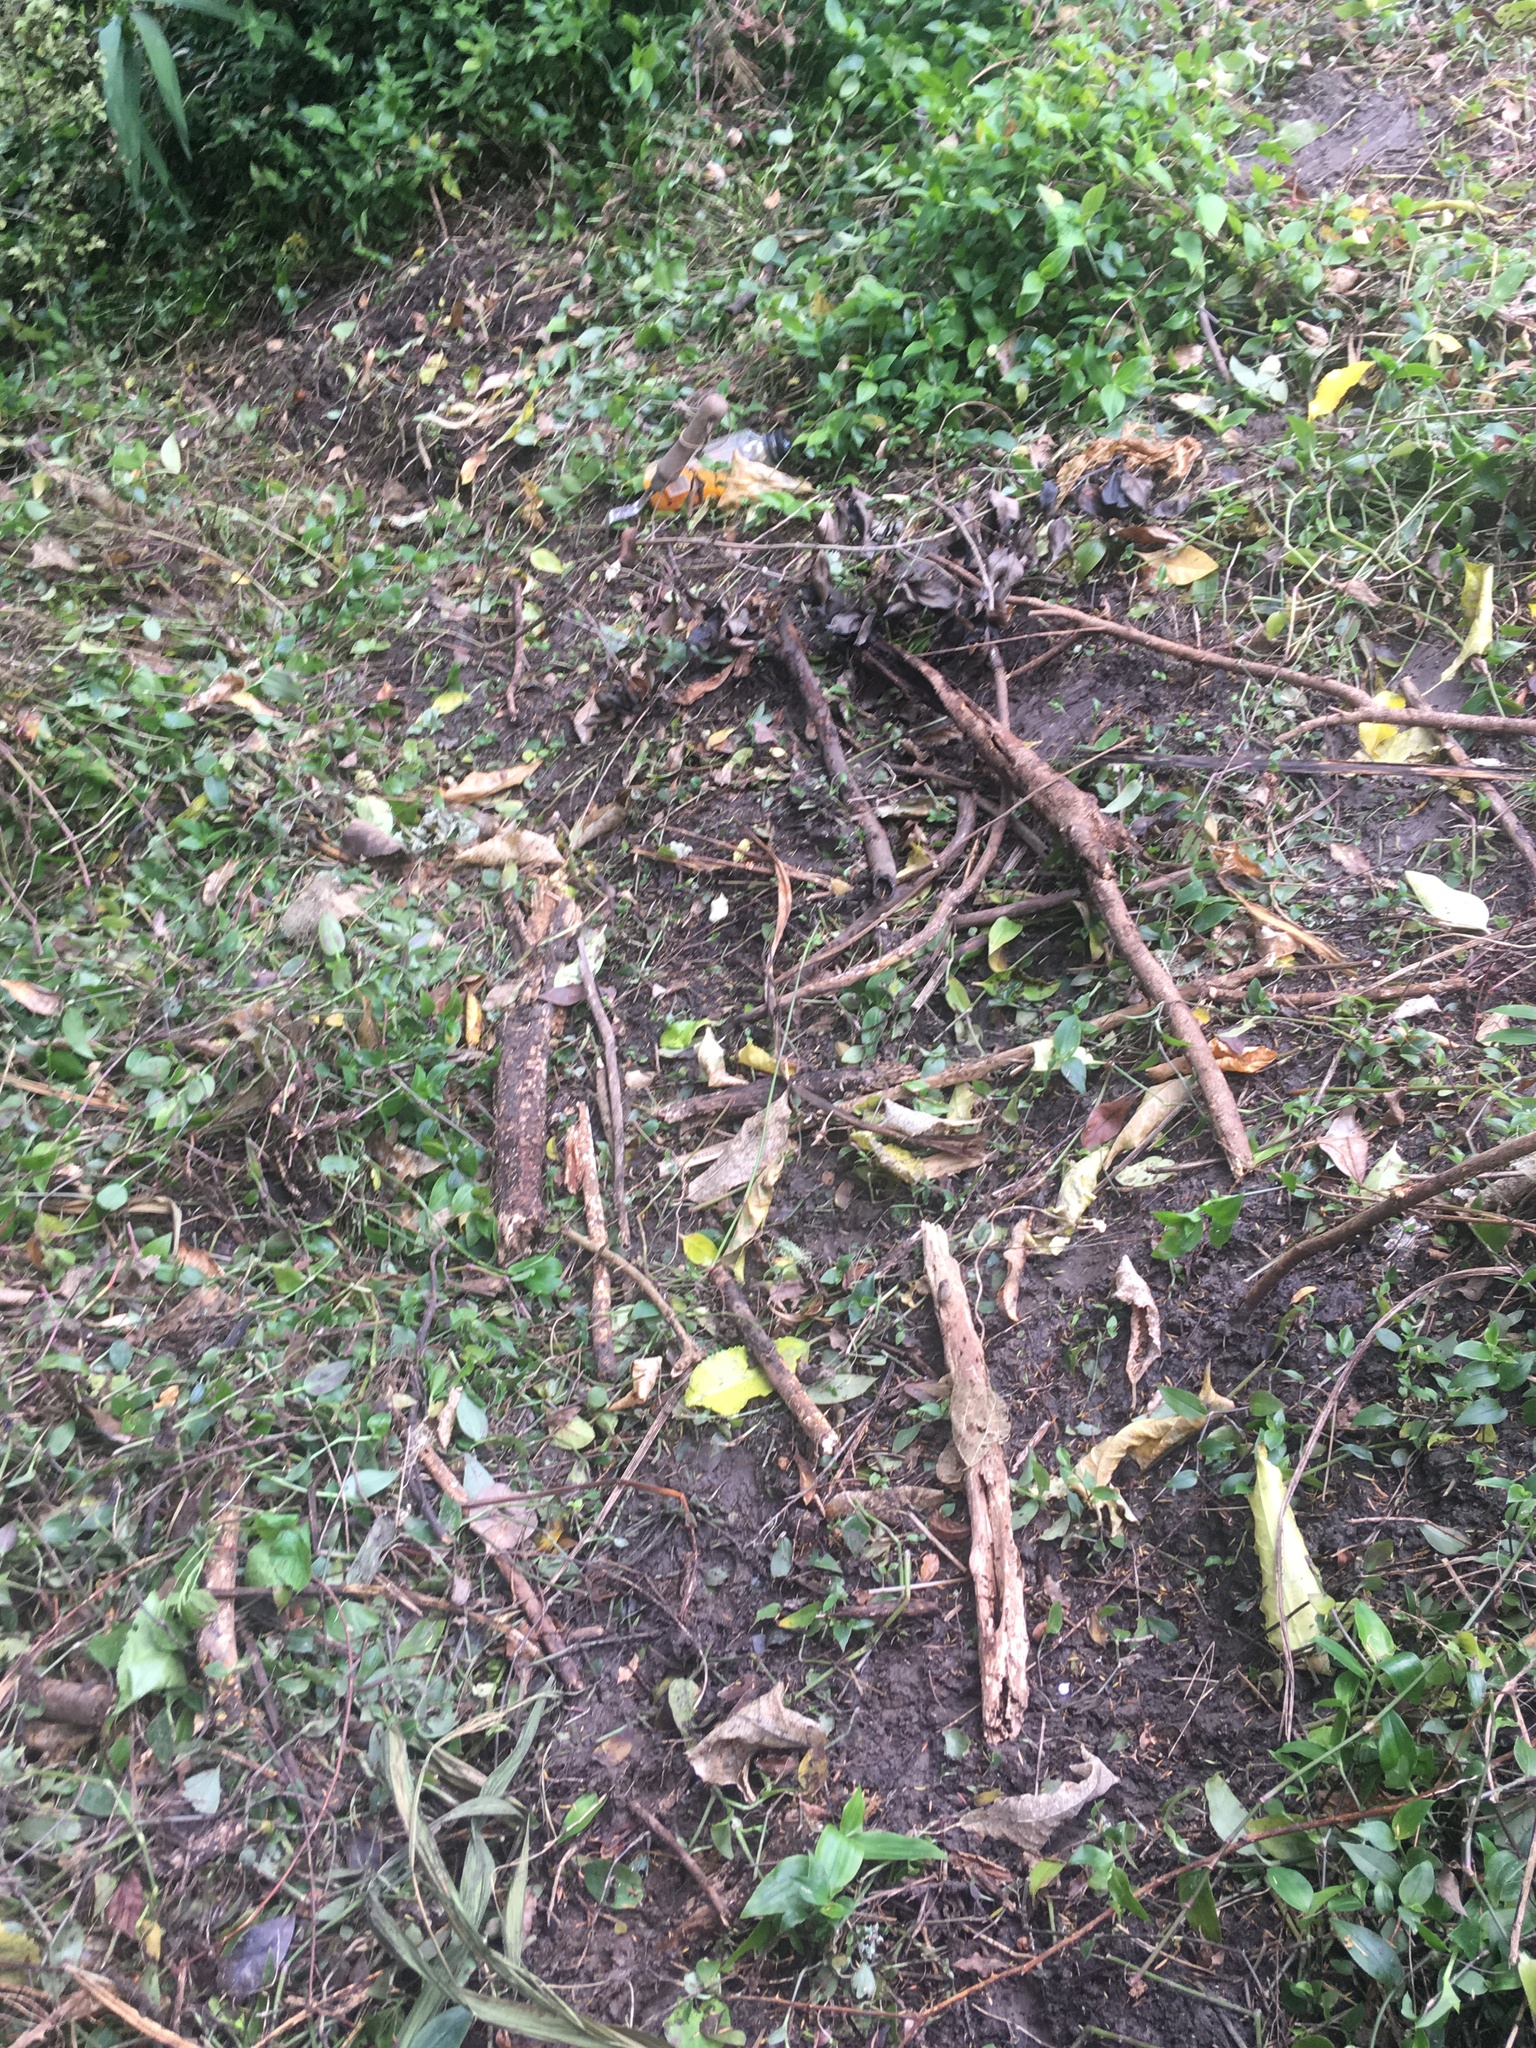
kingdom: Plantae
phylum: Tracheophyta
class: Liliopsida
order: Commelinales
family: Commelinaceae
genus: Tradescantia
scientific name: Tradescantia fluminensis
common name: Wandering-jew
